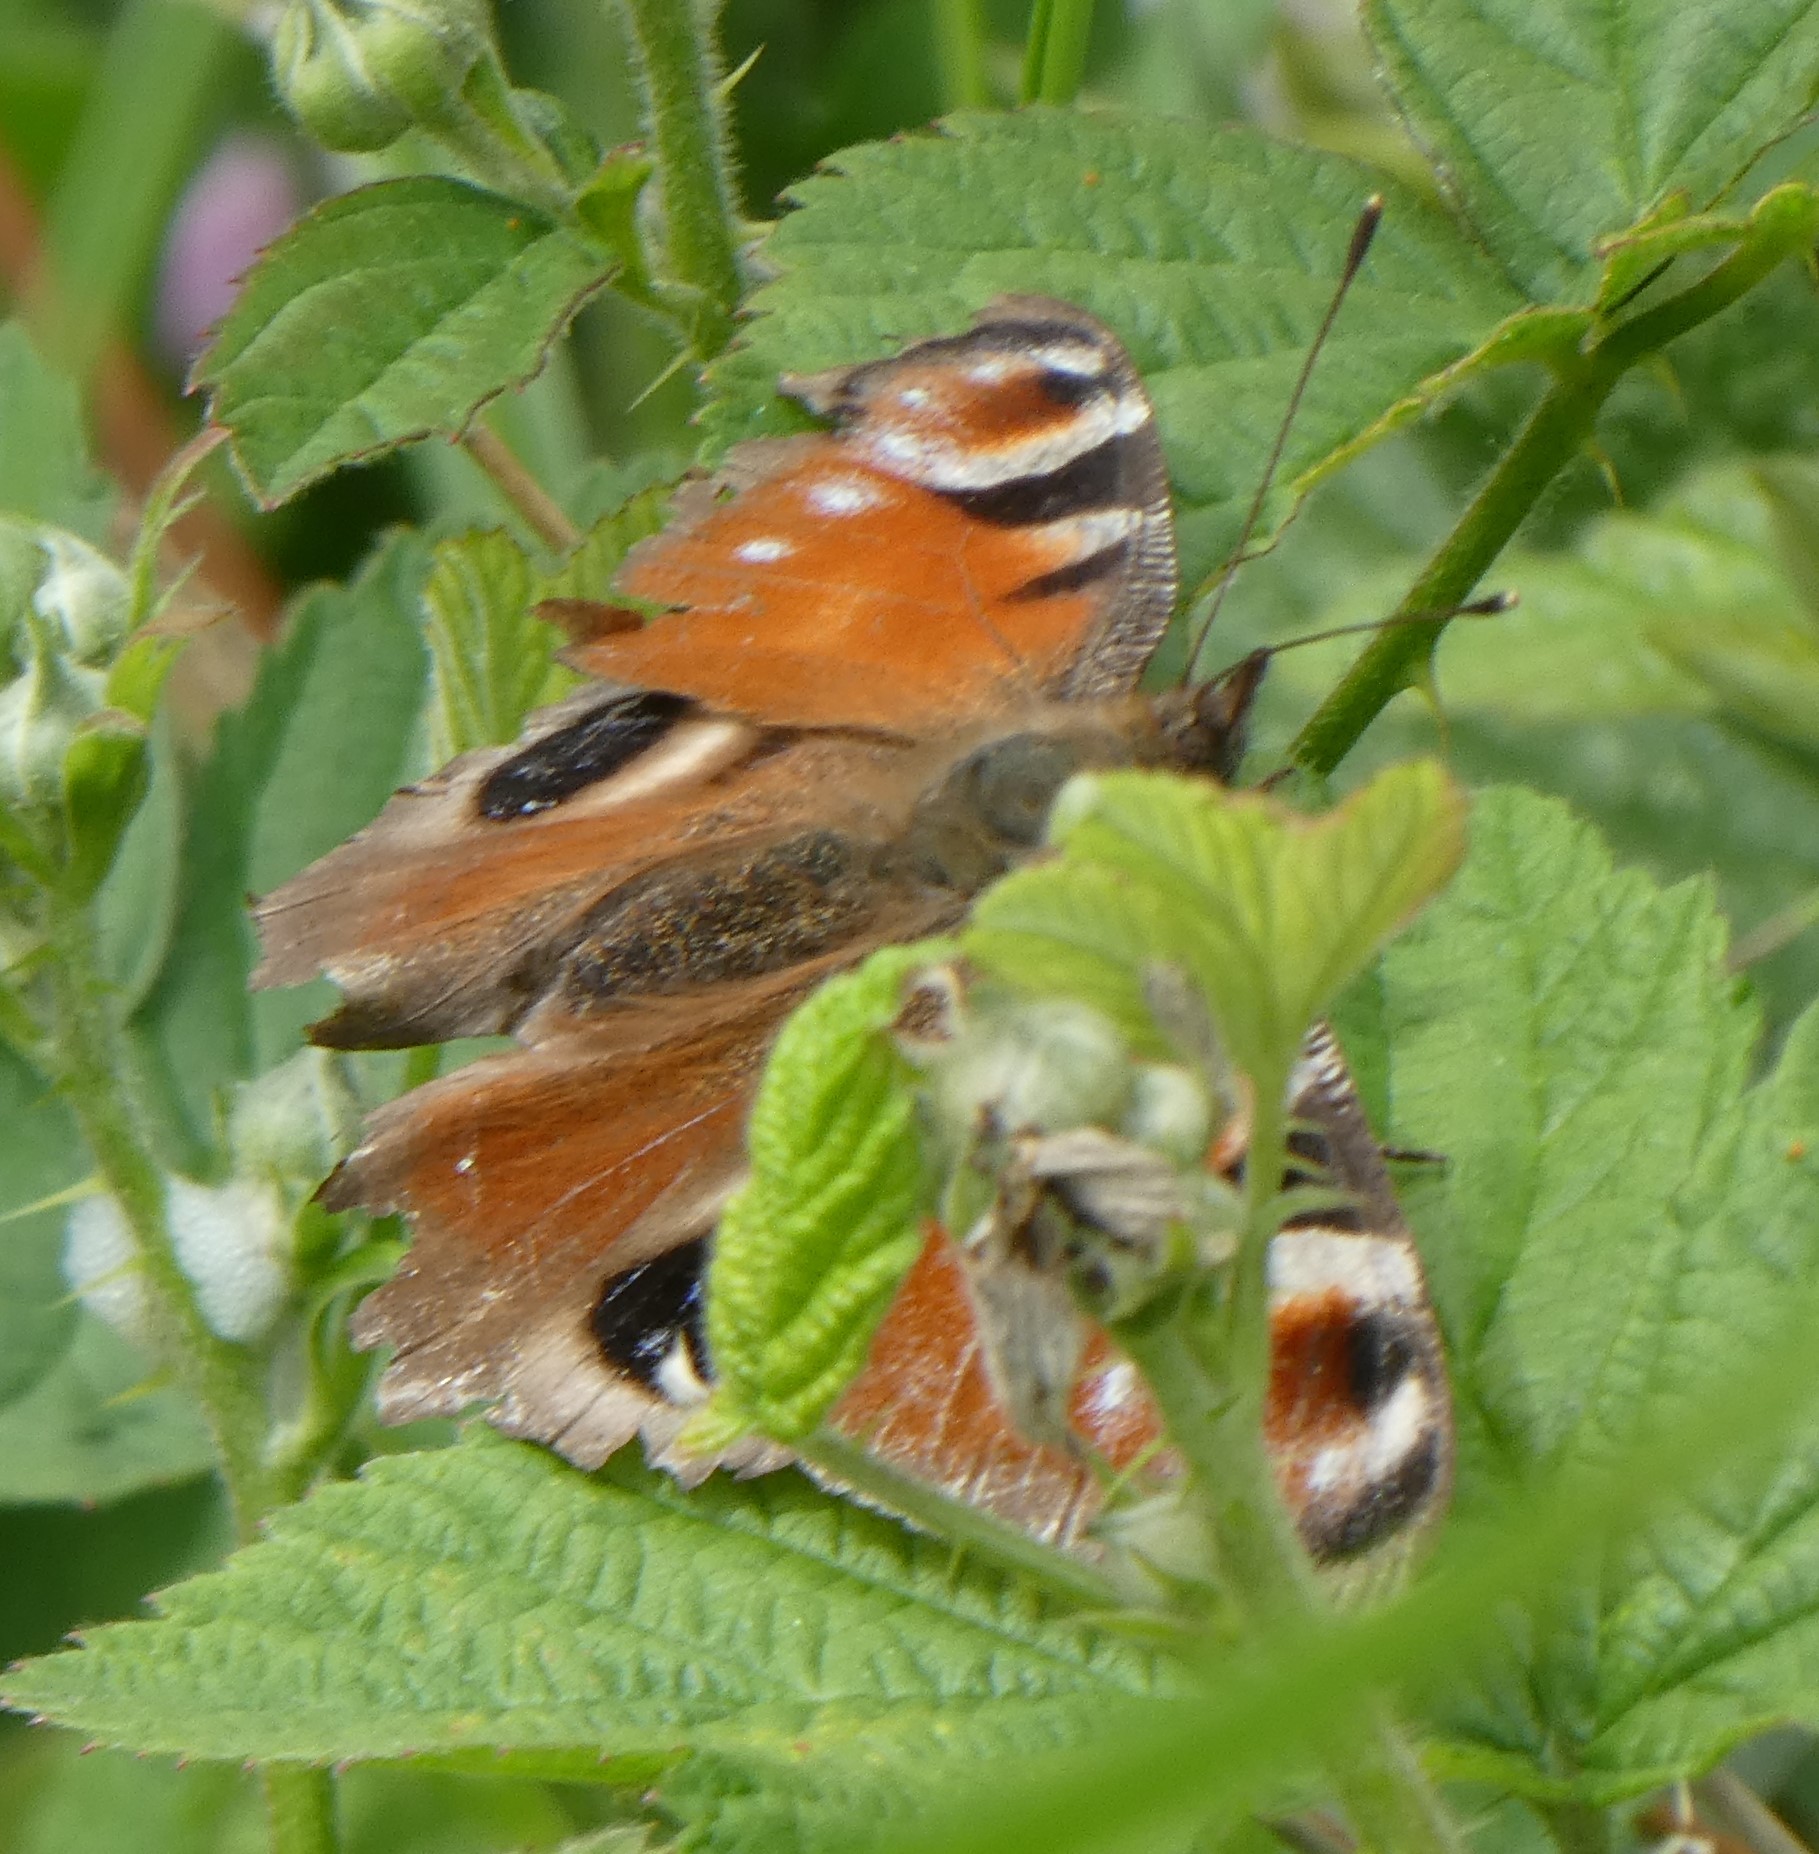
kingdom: Animalia
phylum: Arthropoda
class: Insecta
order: Lepidoptera
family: Nymphalidae
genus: Aglais
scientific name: Aglais io
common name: Peacock
